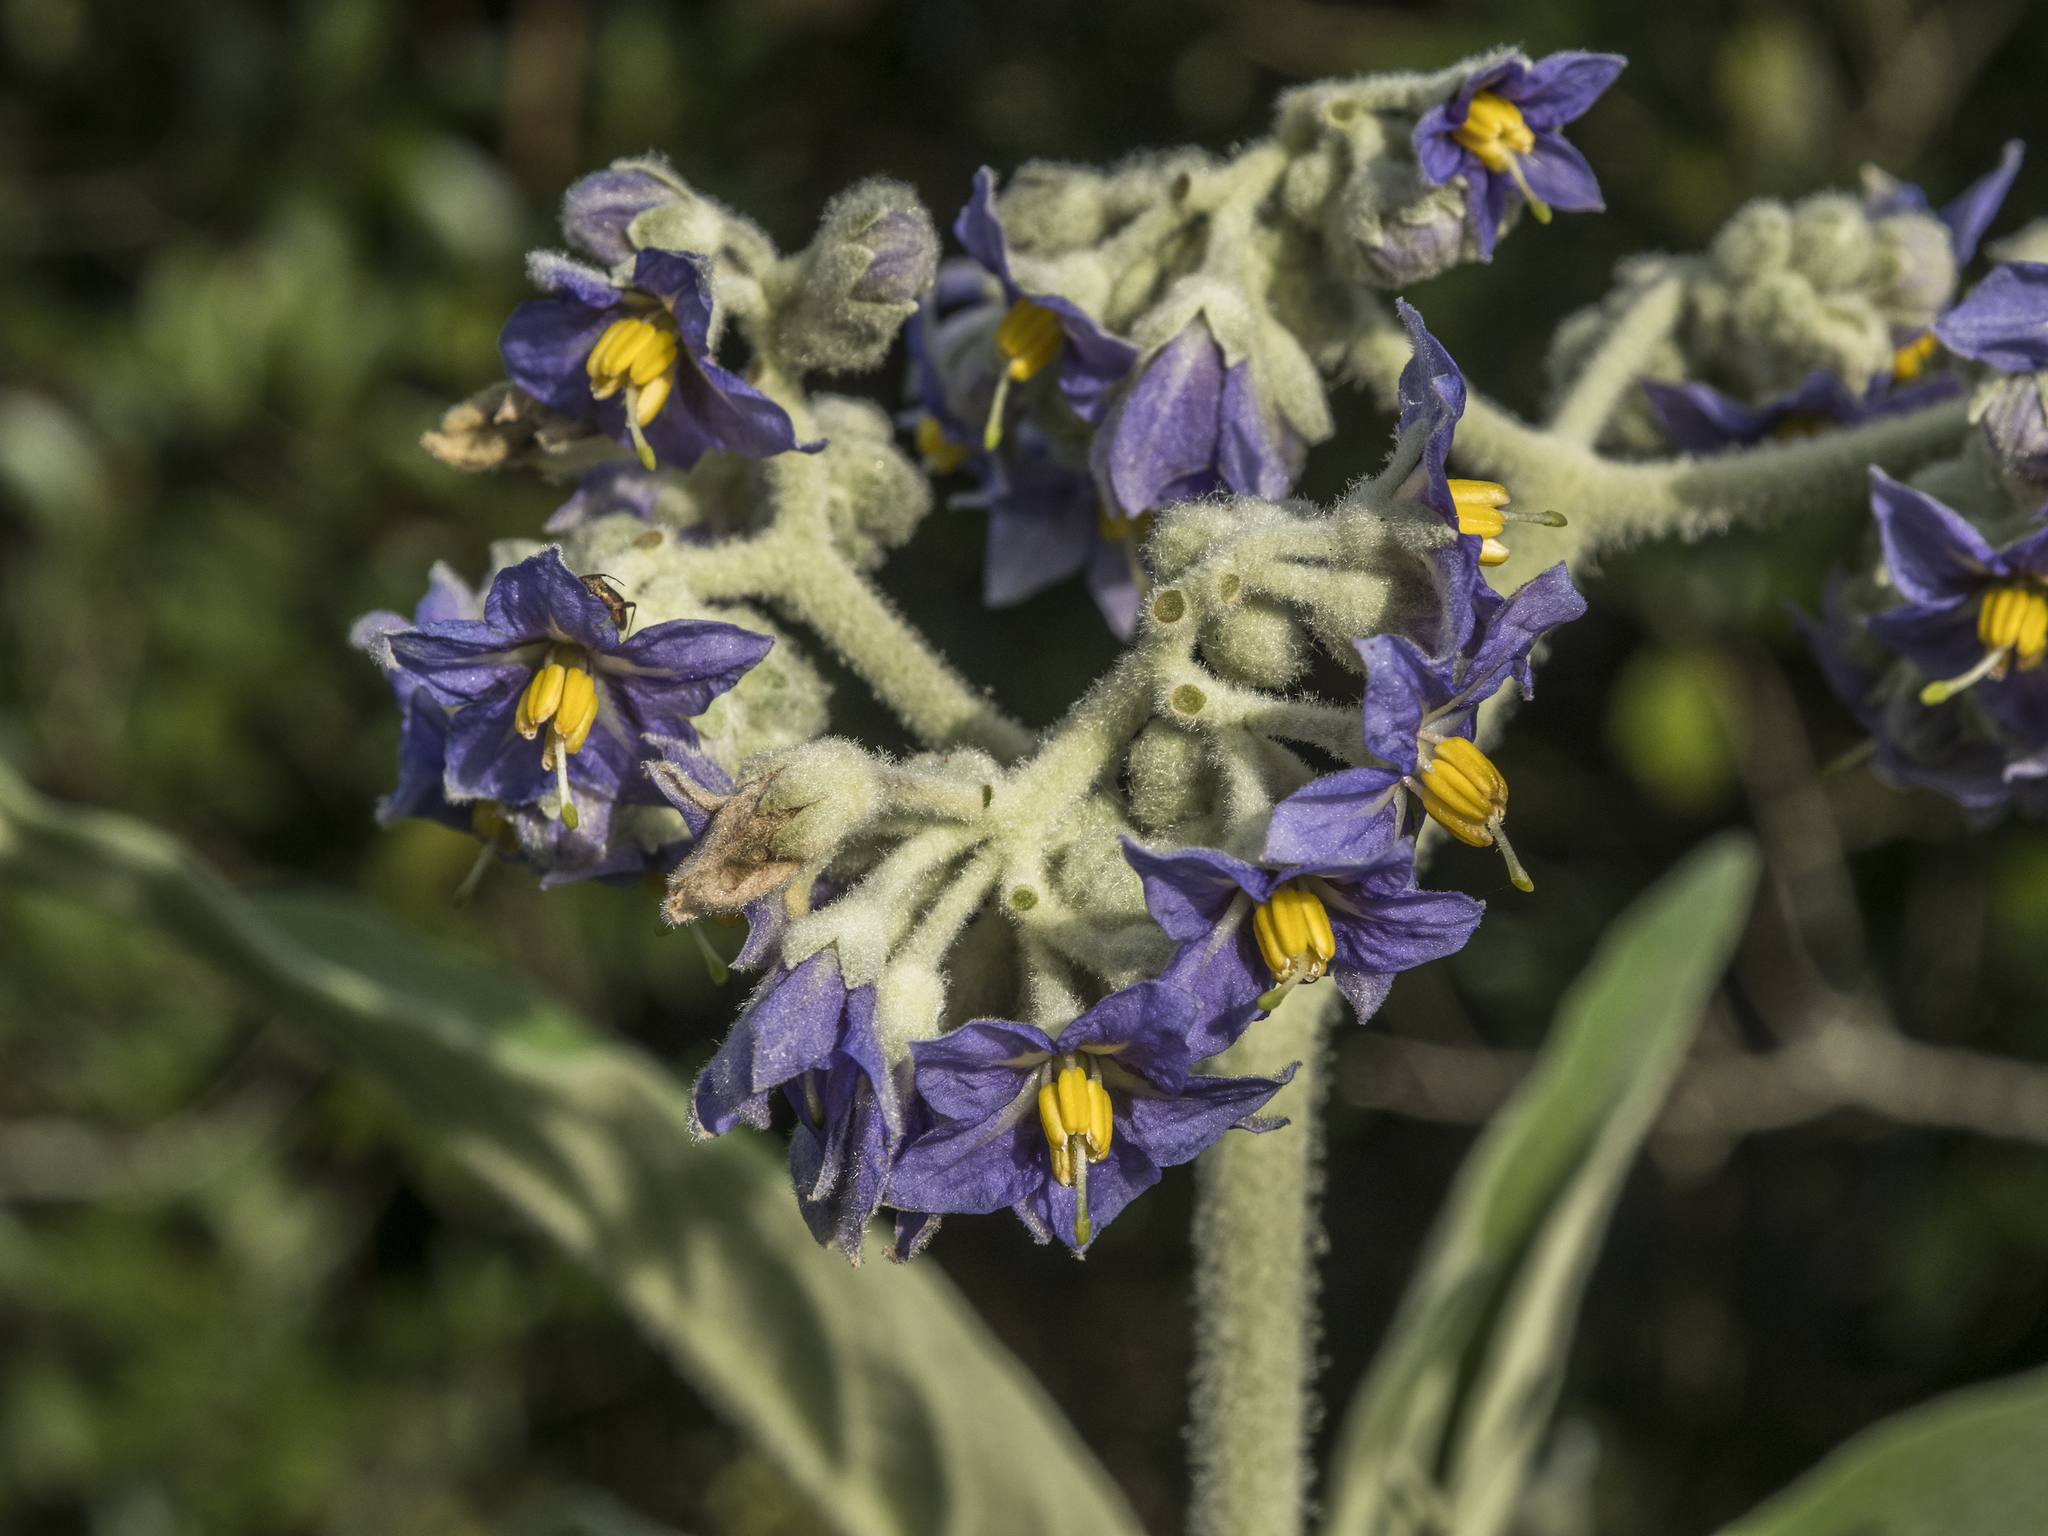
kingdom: Plantae
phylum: Tracheophyta
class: Magnoliopsida
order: Solanales
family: Solanaceae
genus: Solanum
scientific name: Solanum mauritianum
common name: Earleaf nightshade
